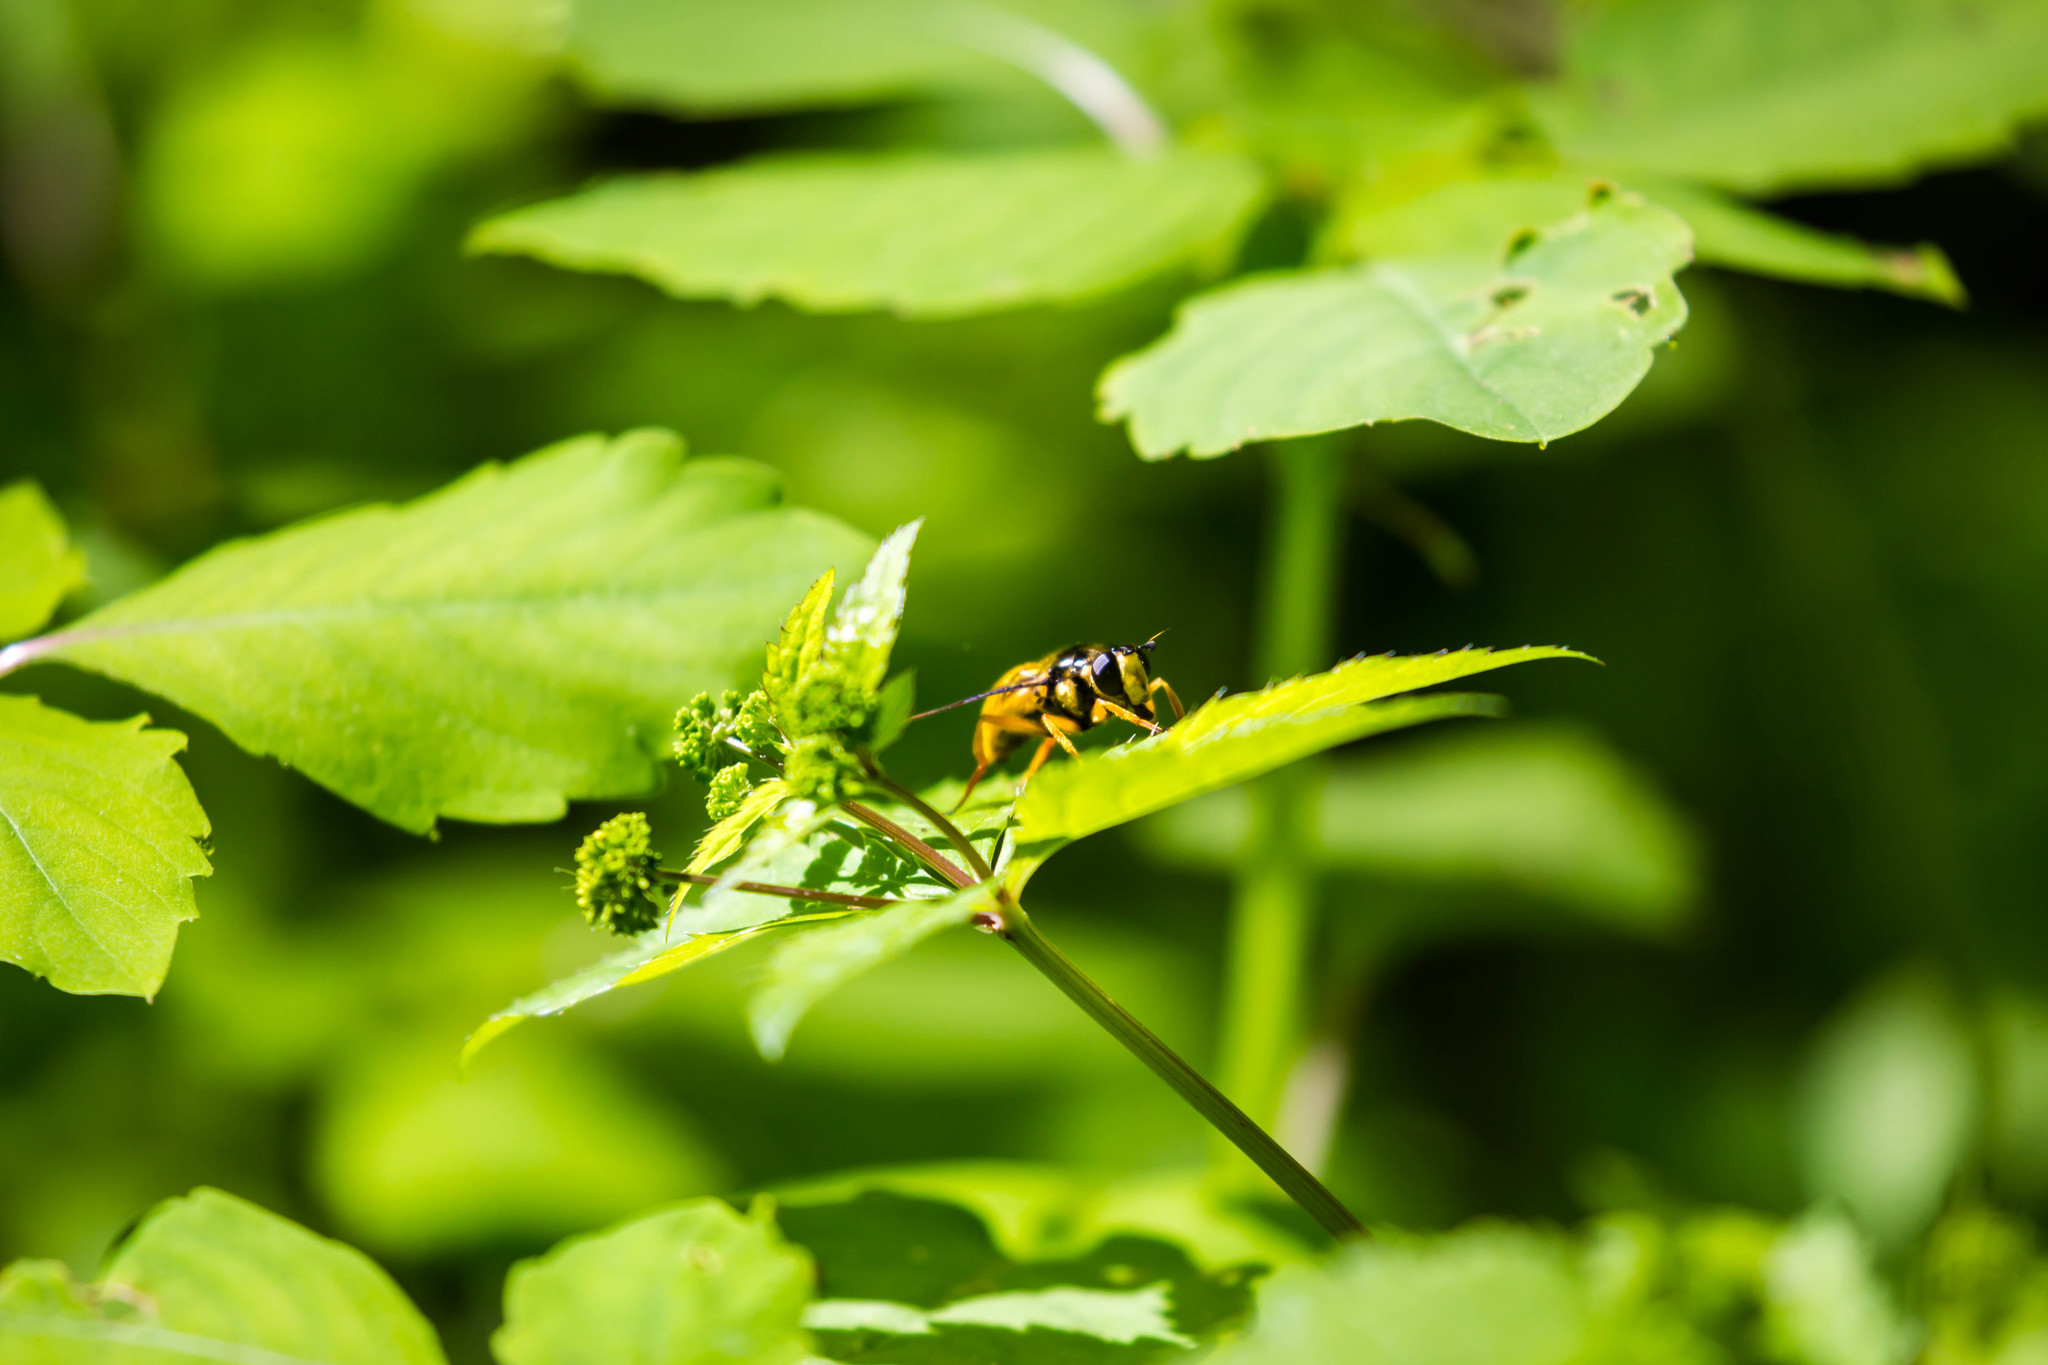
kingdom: Animalia
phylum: Arthropoda
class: Insecta
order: Diptera
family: Syrphidae
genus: Somula
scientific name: Somula decora
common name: Spotted wood fly
